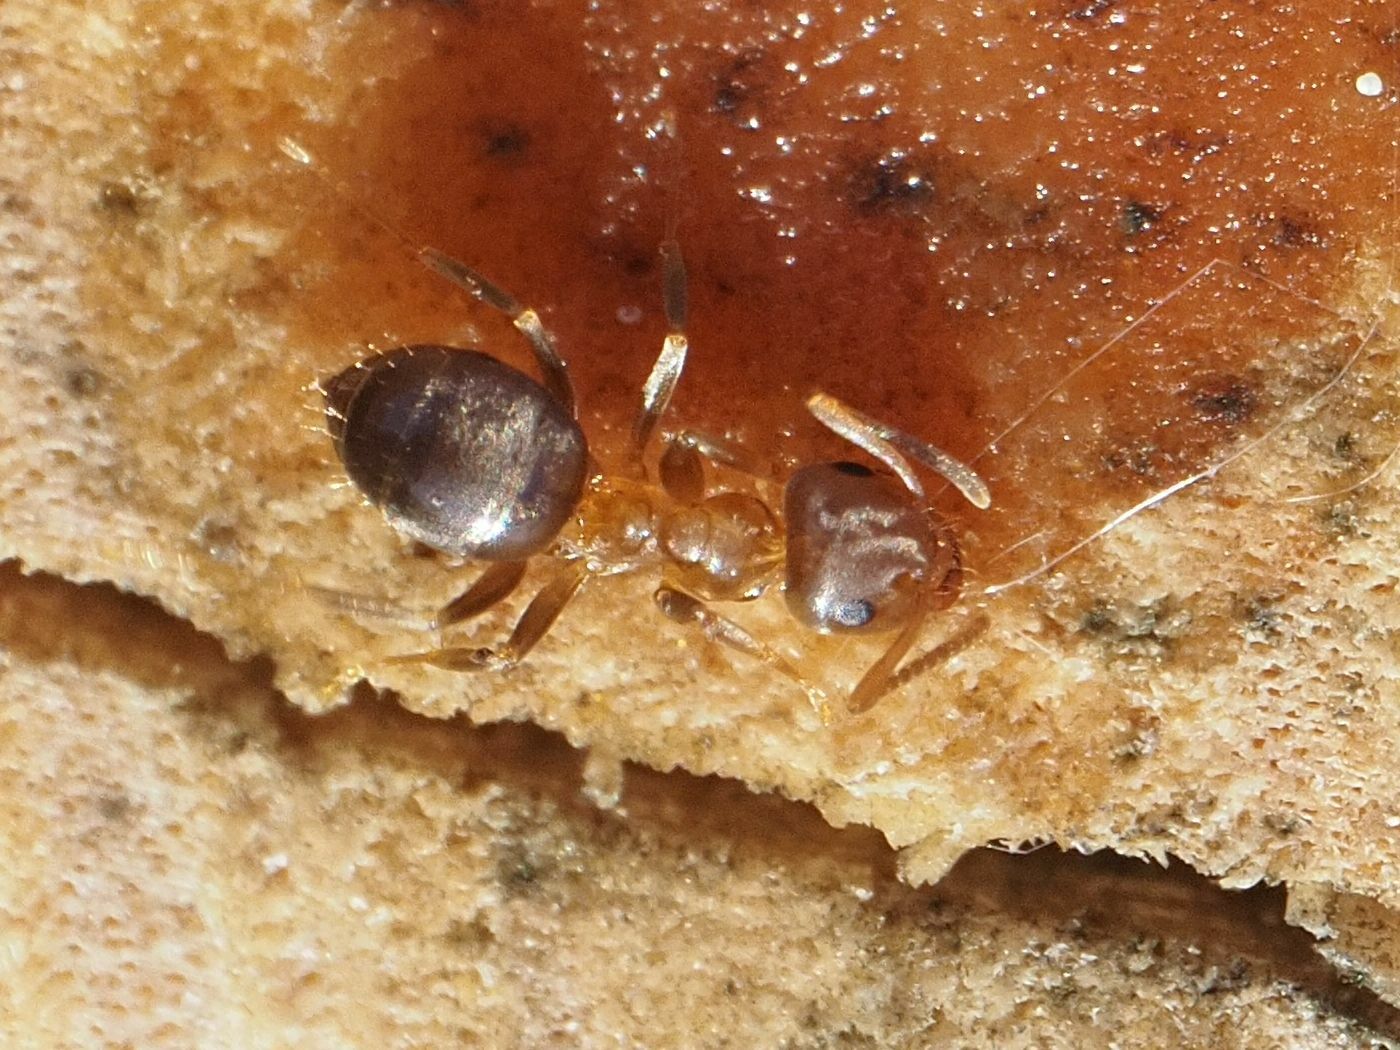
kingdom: Animalia
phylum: Arthropoda
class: Insecta
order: Hymenoptera
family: Formicidae
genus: Lasius
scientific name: Lasius brunneus
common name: Brown ant
